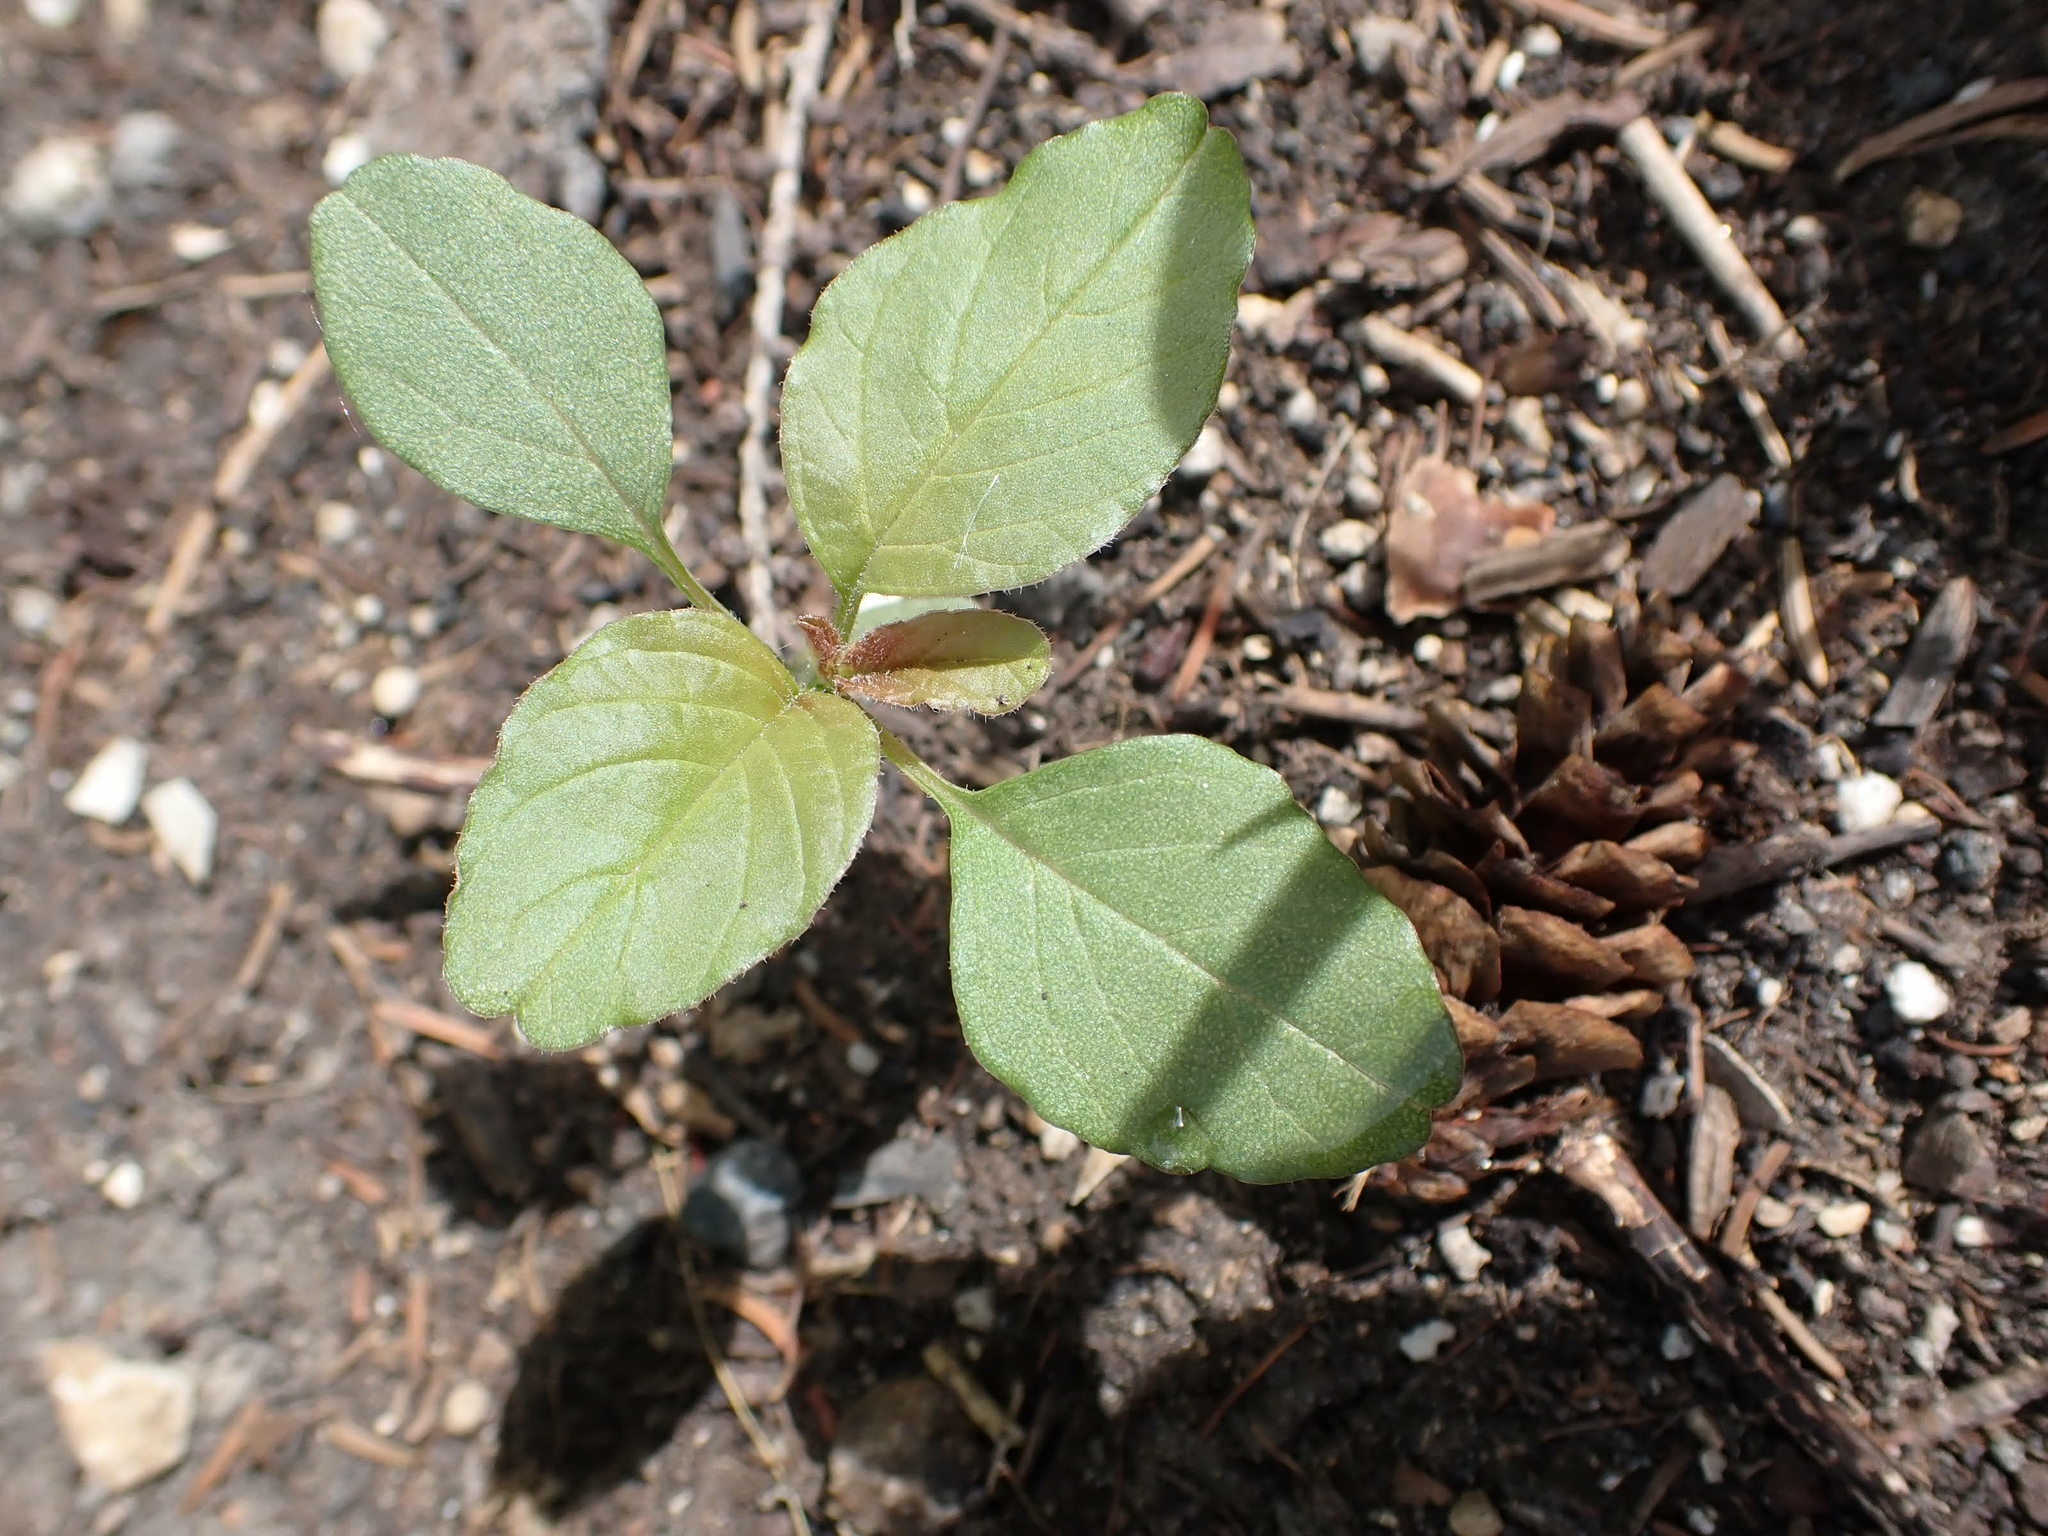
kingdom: Plantae
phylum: Tracheophyta
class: Magnoliopsida
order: Caryophyllales
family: Amaranthaceae
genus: Amaranthus
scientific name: Amaranthus retroflexus
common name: Redroot amaranth
